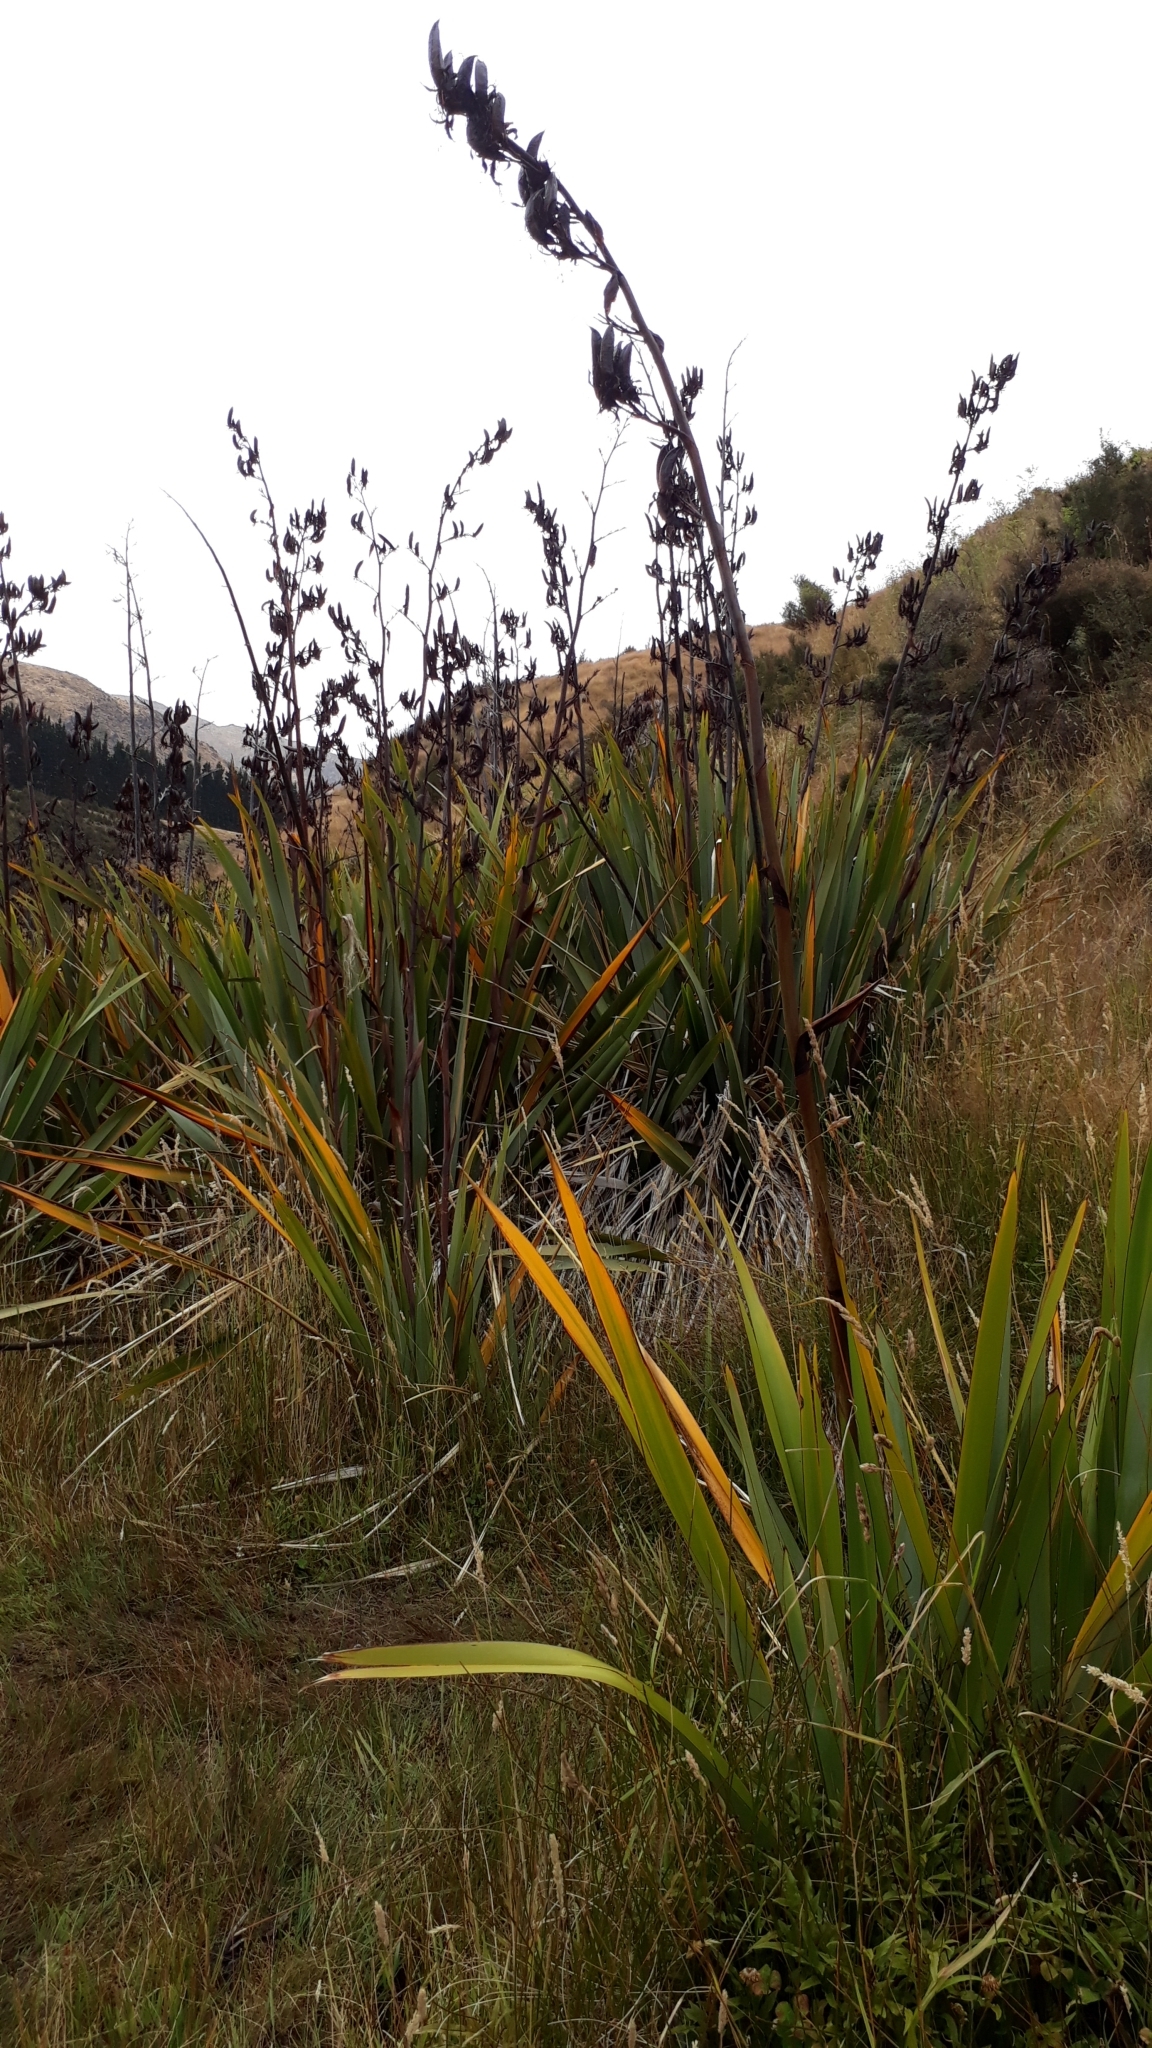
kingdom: Plantae
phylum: Tracheophyta
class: Liliopsida
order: Asparagales
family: Asphodelaceae
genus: Phormium
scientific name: Phormium tenax
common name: New zealand flax
